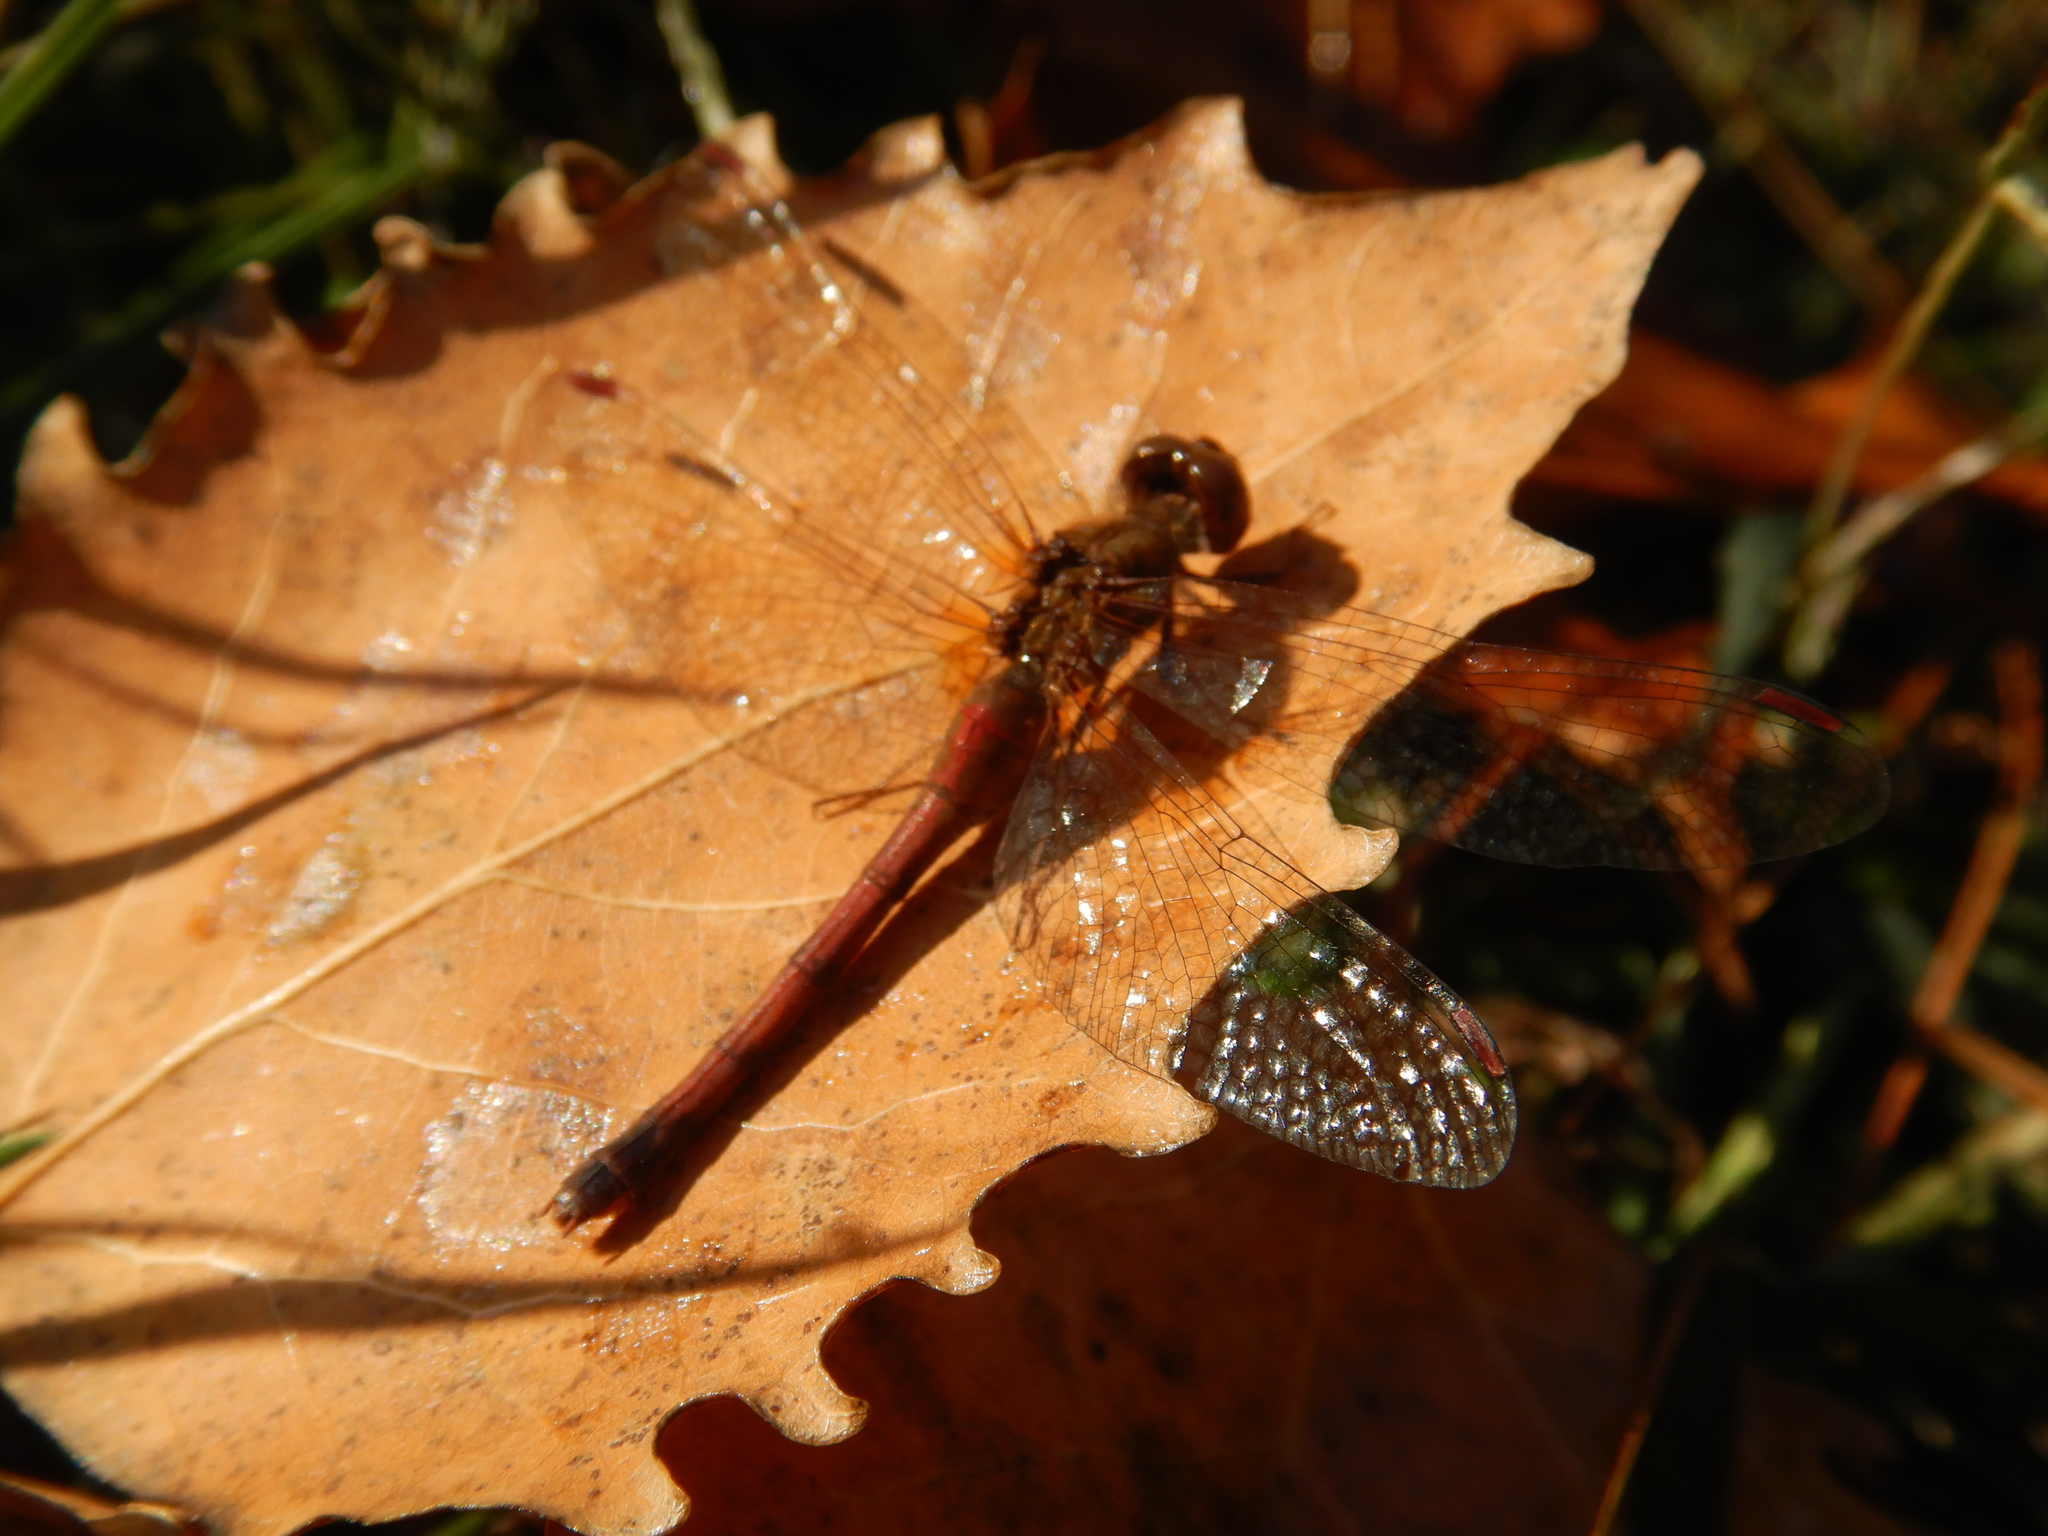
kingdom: Animalia
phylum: Arthropoda
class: Insecta
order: Odonata
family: Libellulidae
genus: Sympetrum
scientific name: Sympetrum vicinum
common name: Autumn meadowhawk
